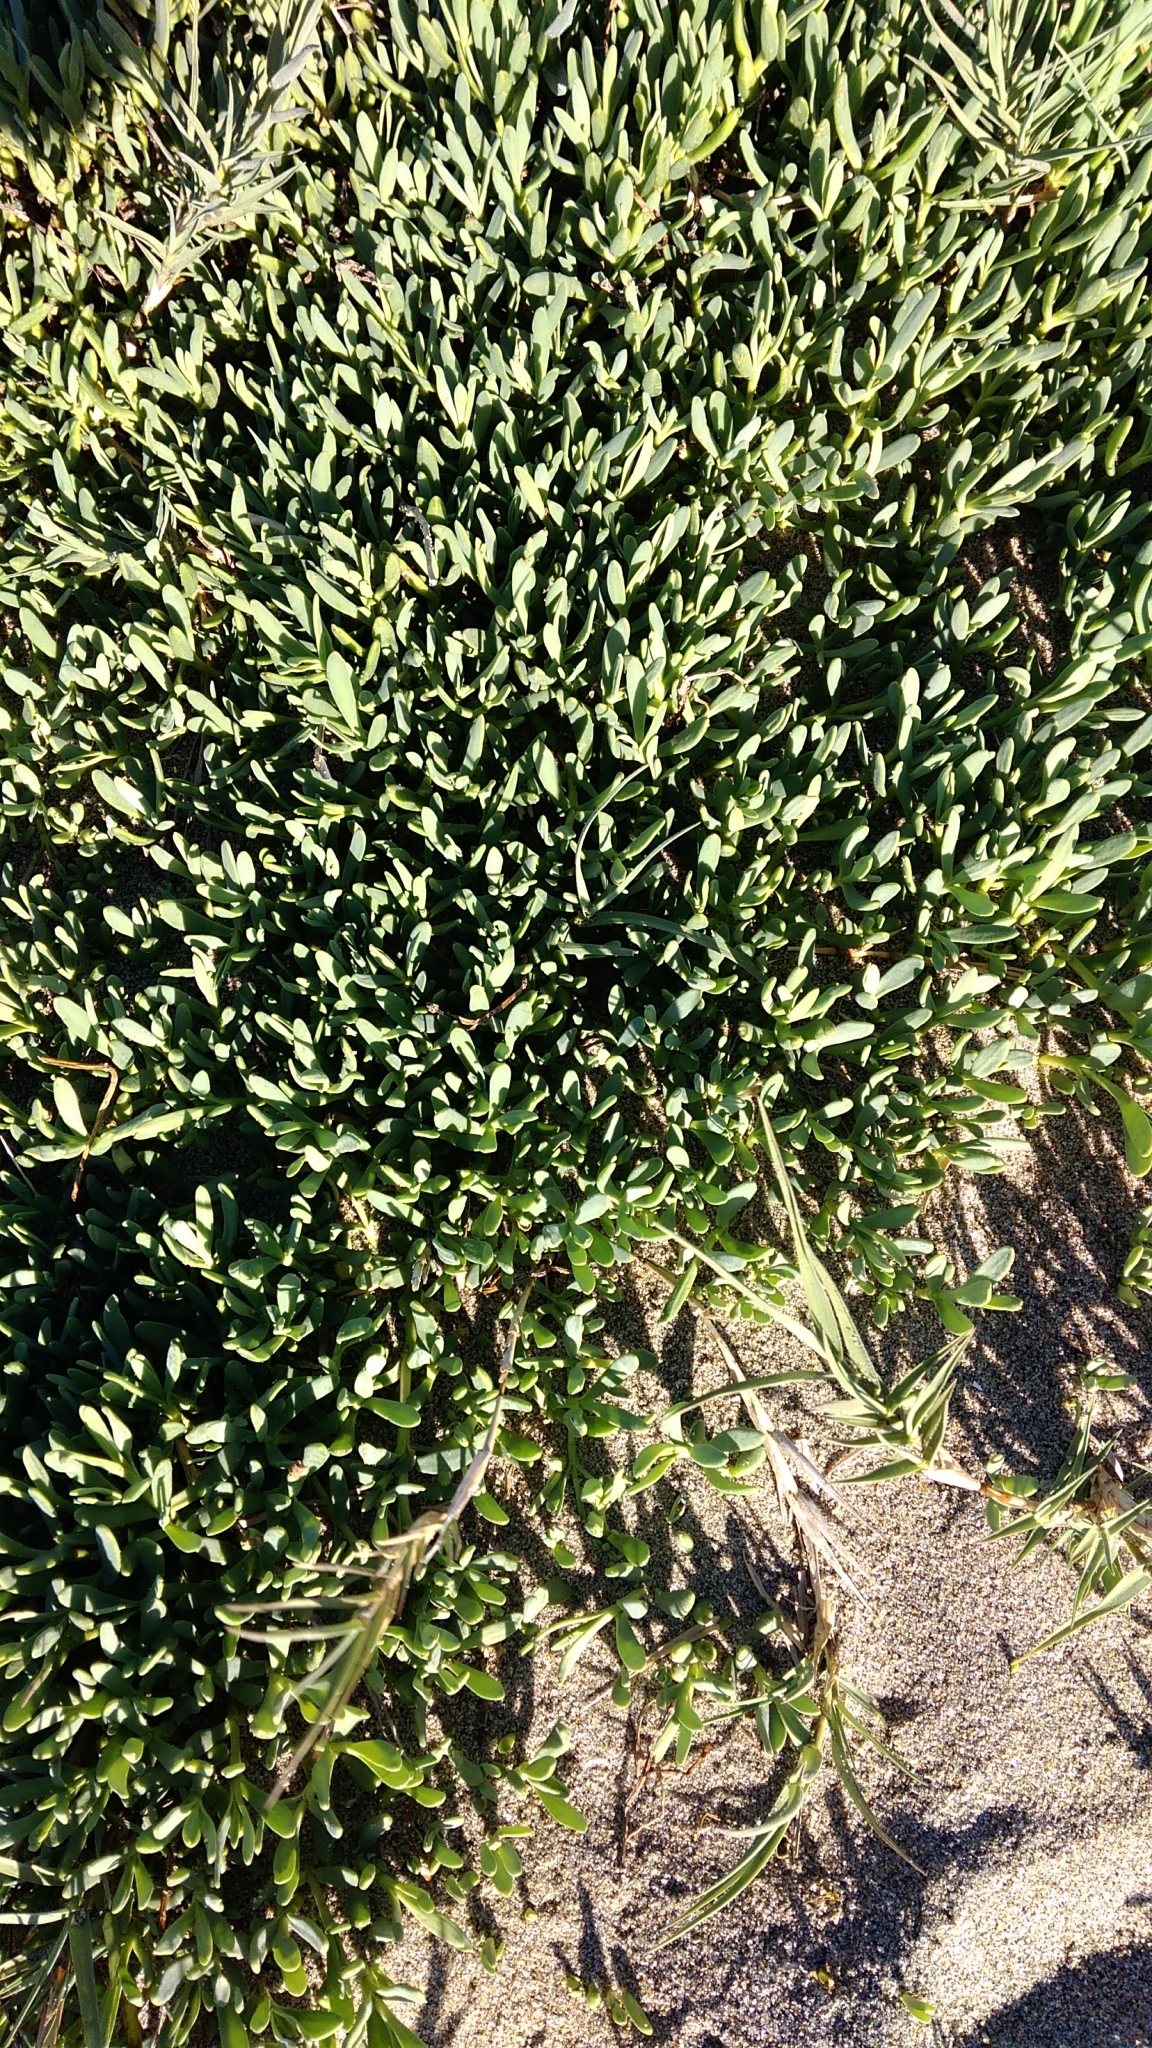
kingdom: Plantae
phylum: Tracheophyta
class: Magnoliopsida
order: Asterales
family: Asteraceae
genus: Jaumea
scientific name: Jaumea carnosa
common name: Fleshy jaumea
